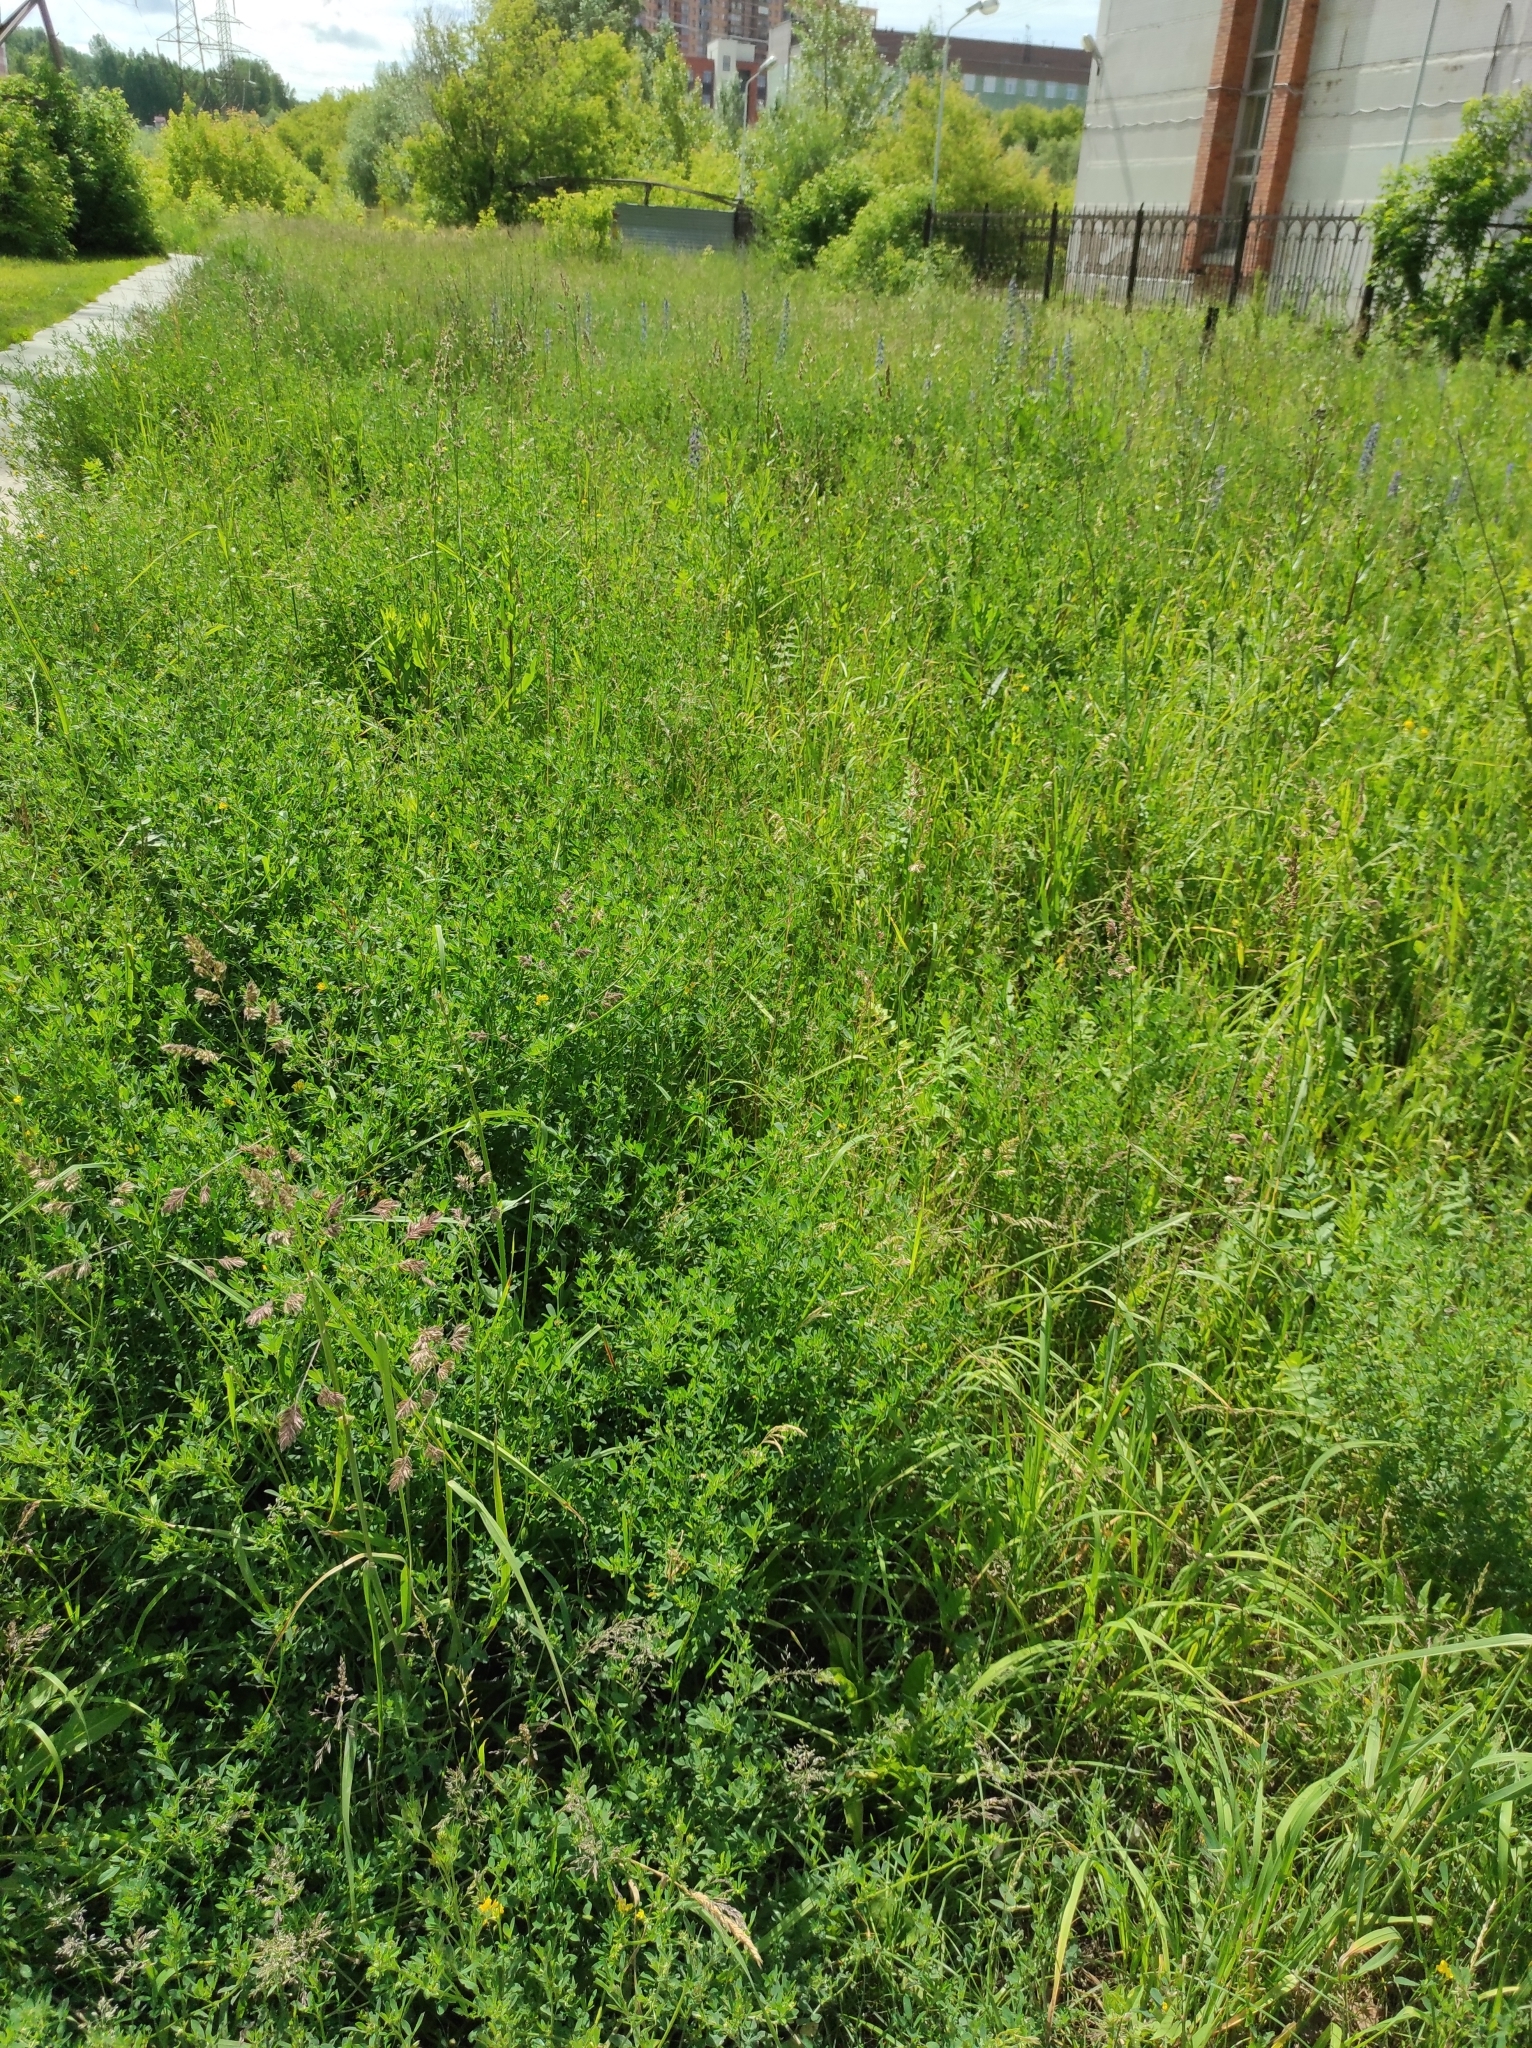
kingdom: Plantae
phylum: Tracheophyta
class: Magnoliopsida
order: Boraginales
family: Boraginaceae
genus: Echium
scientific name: Echium vulgare
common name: Common viper's bugloss
